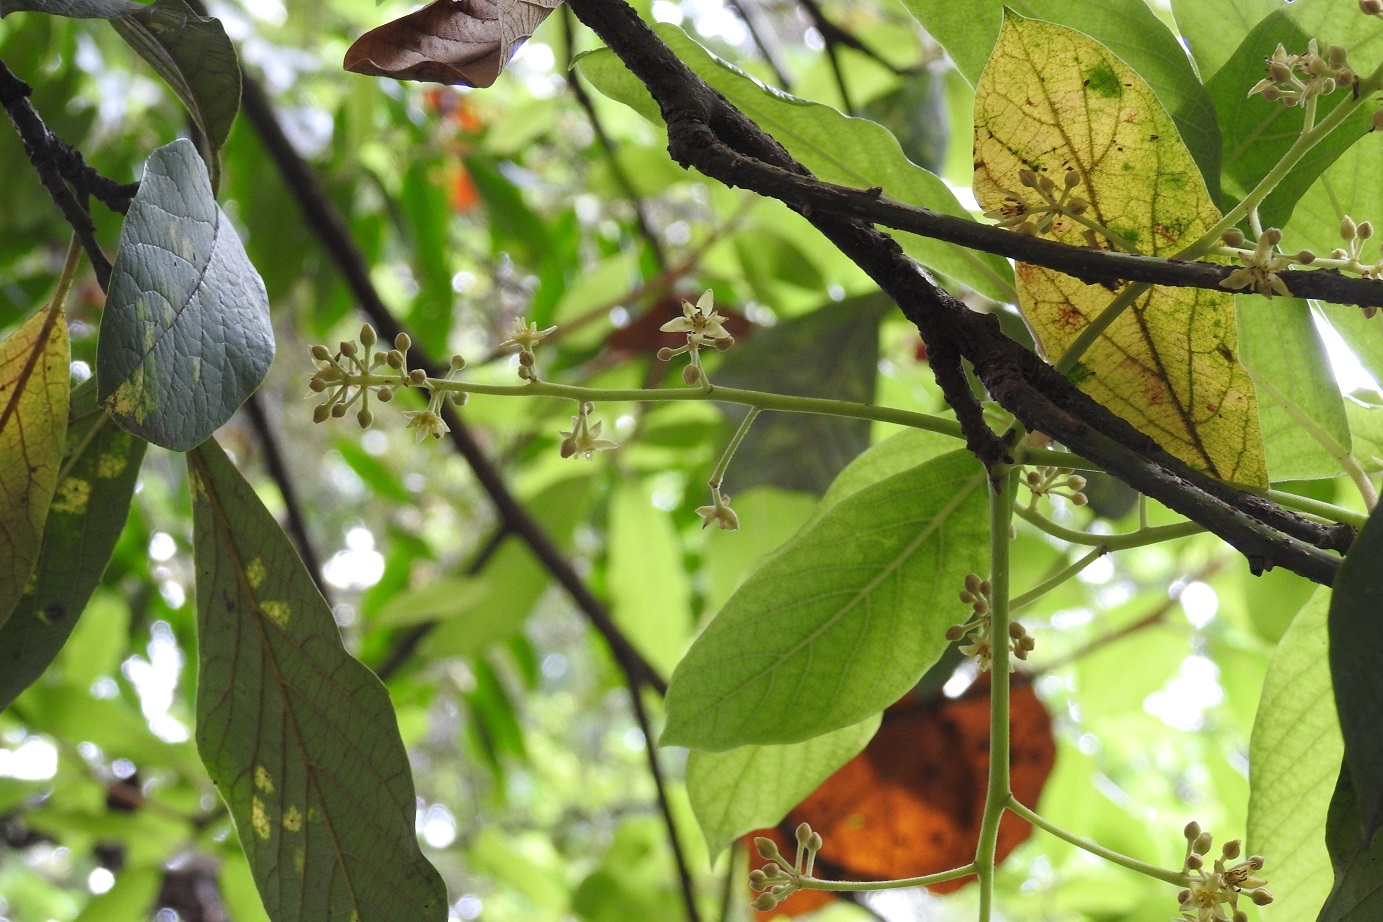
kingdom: Plantae
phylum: Tracheophyta
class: Magnoliopsida
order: Laurales
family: Lauraceae
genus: Persea
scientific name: Persea americana
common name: Avocado
